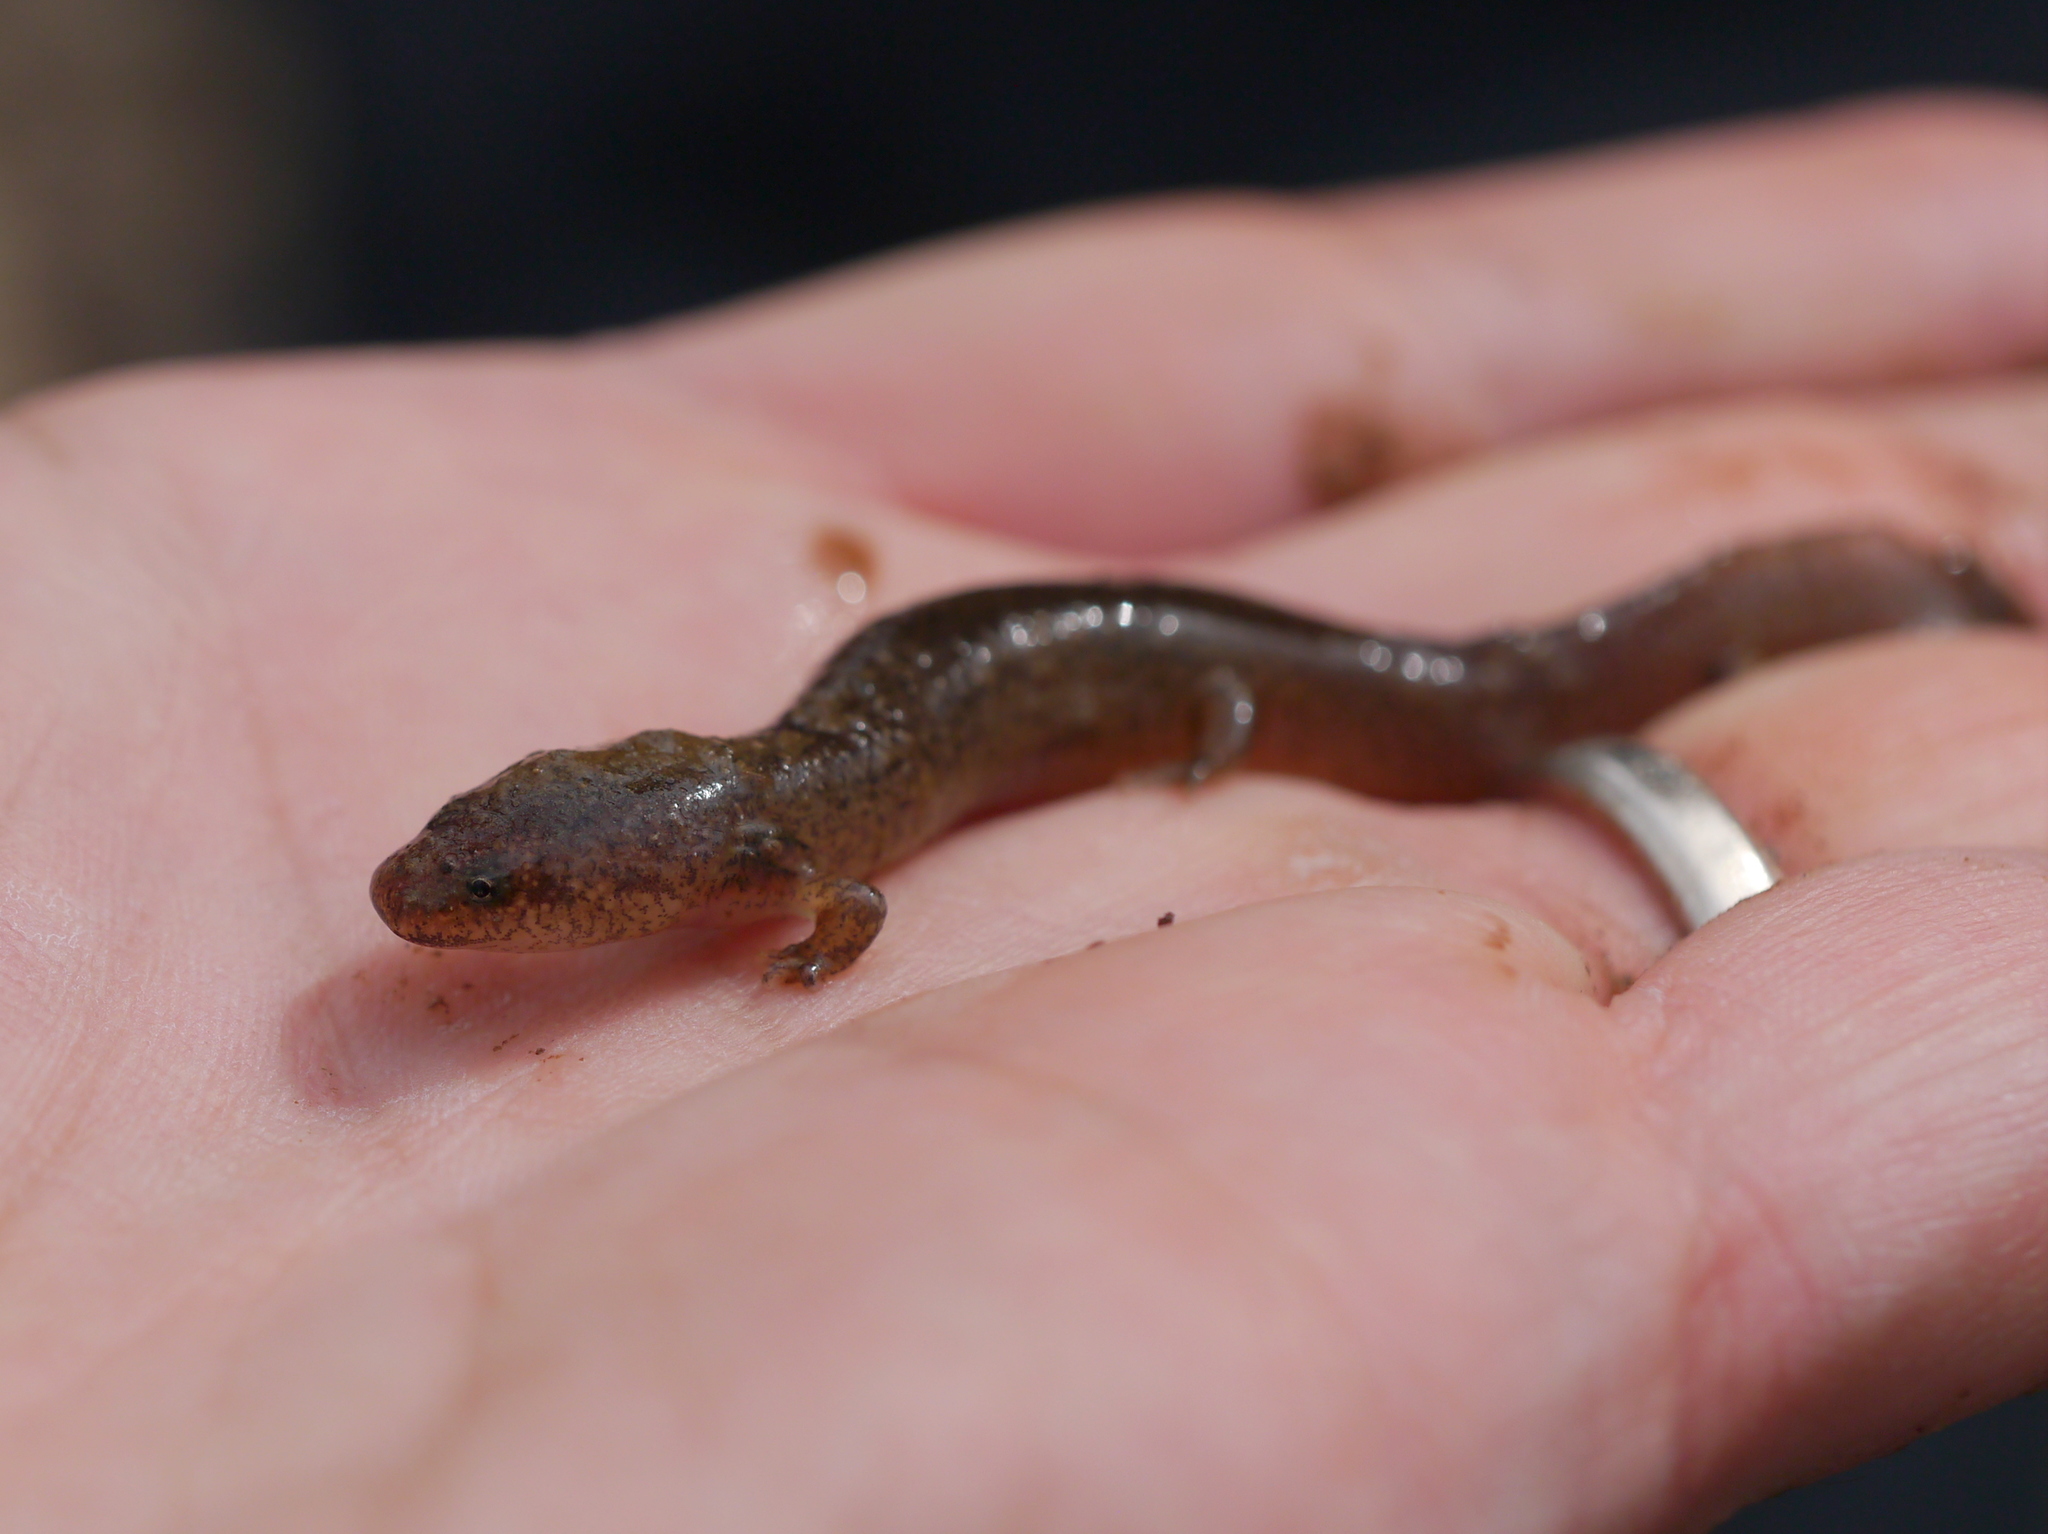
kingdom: Animalia
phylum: Chordata
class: Amphibia
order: Caudata
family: Plethodontidae
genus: Pseudotriton
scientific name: Pseudotriton ruber
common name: Red salamander
